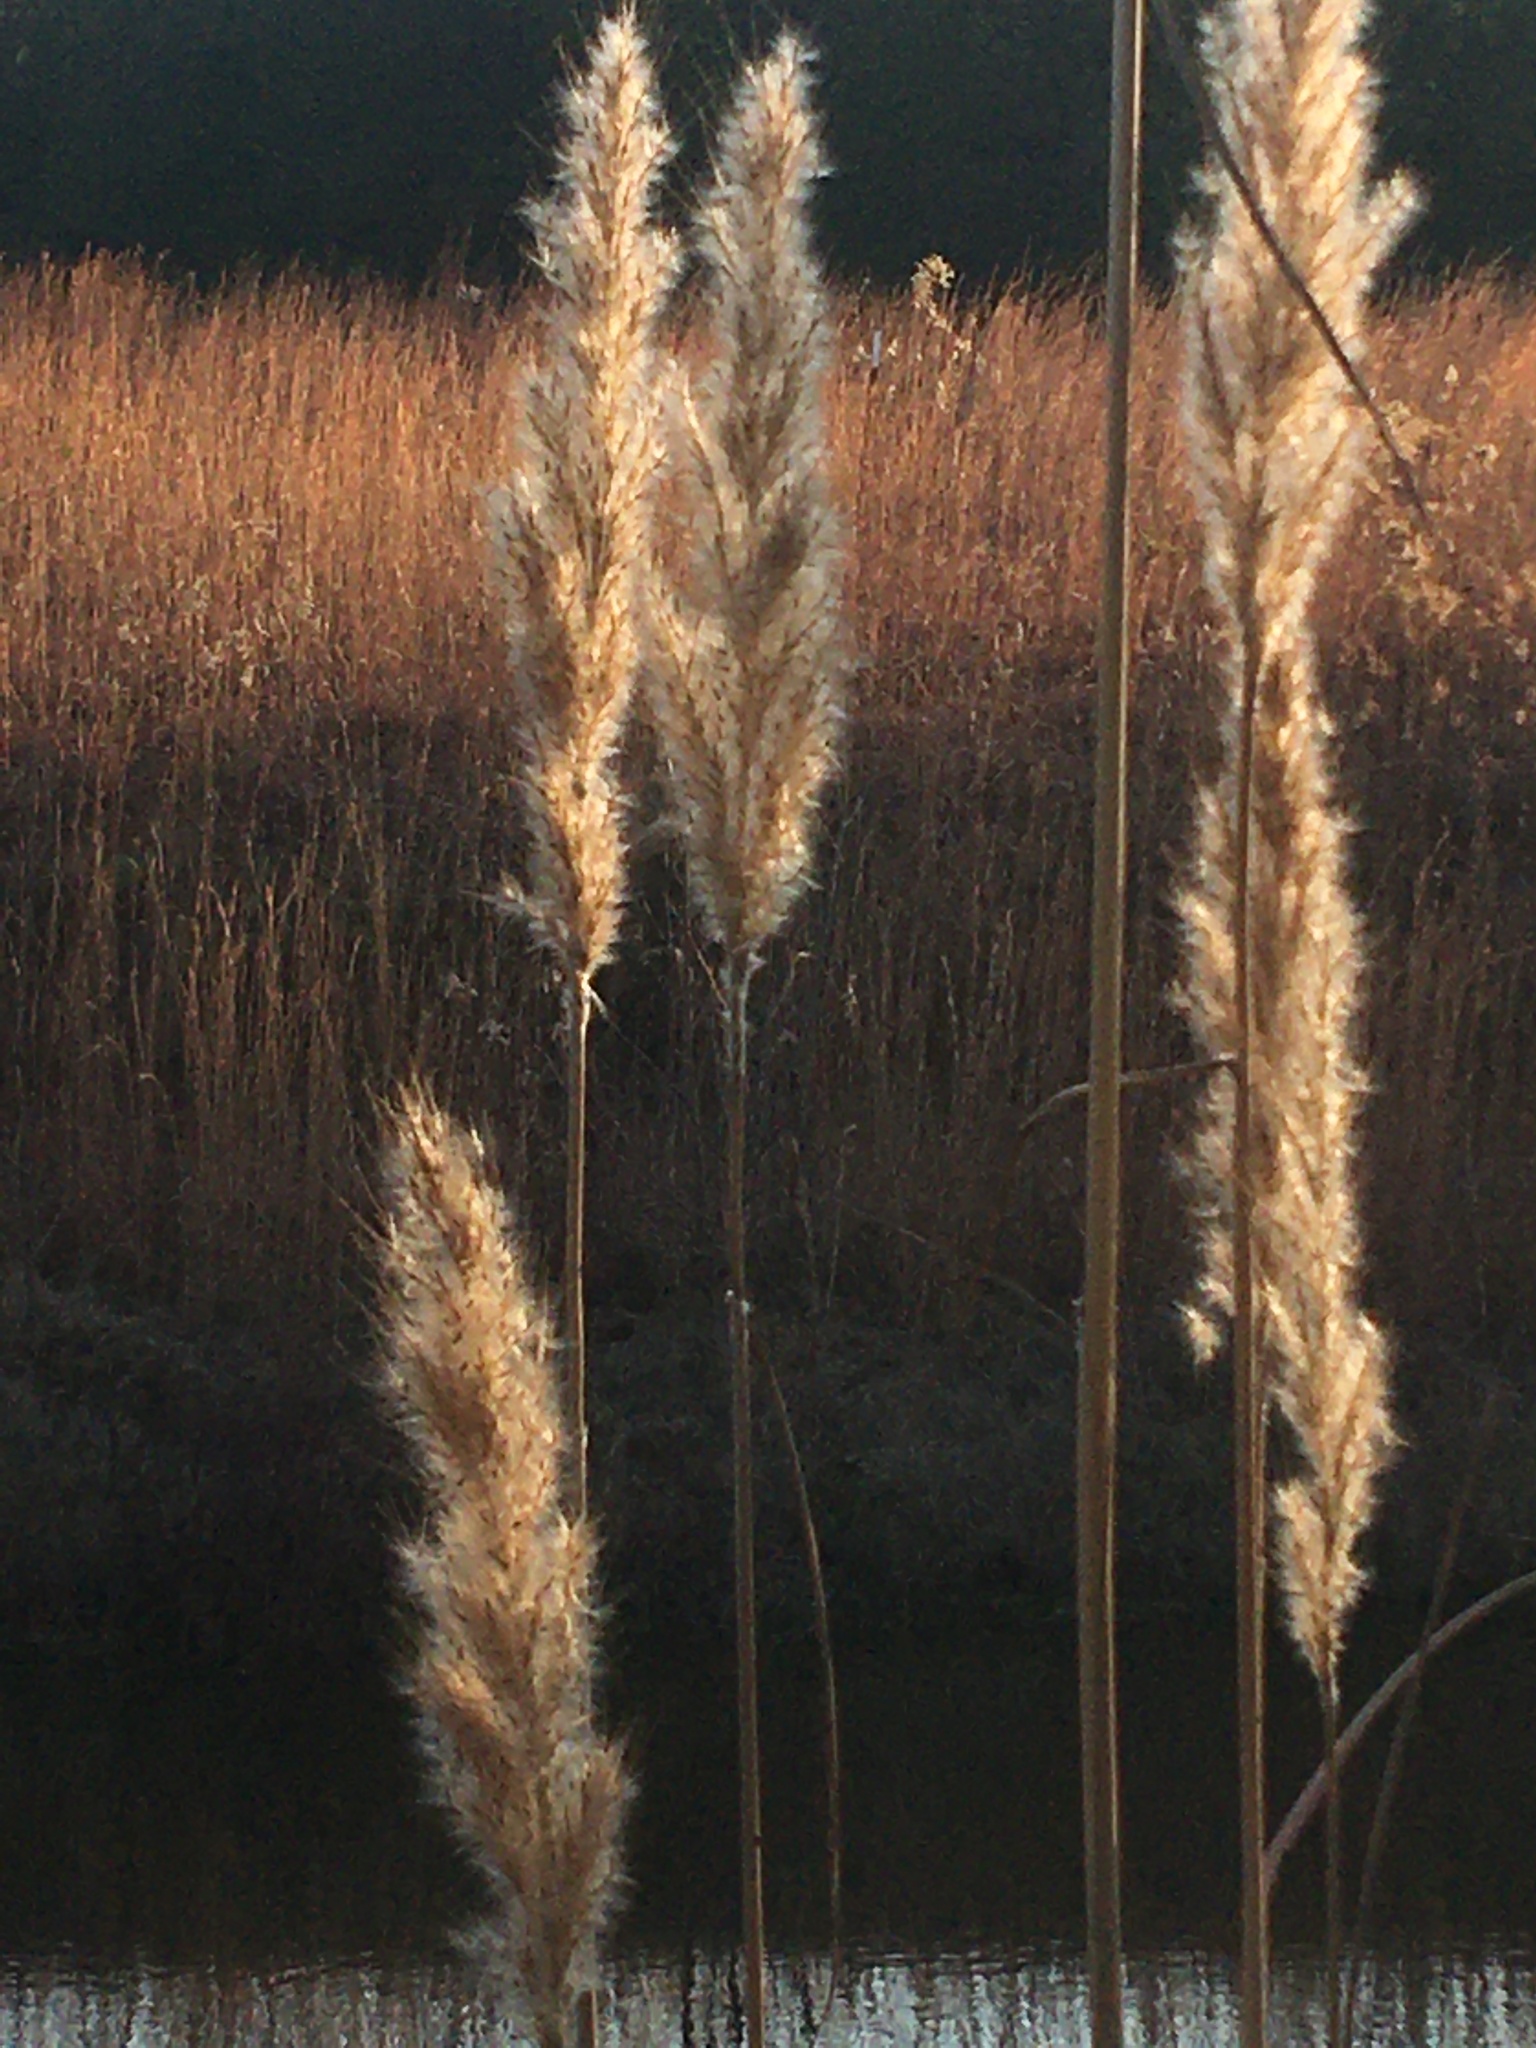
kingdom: Plantae
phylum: Tracheophyta
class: Liliopsida
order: Poales
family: Poaceae
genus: Erianthus
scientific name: Erianthus giganteus
